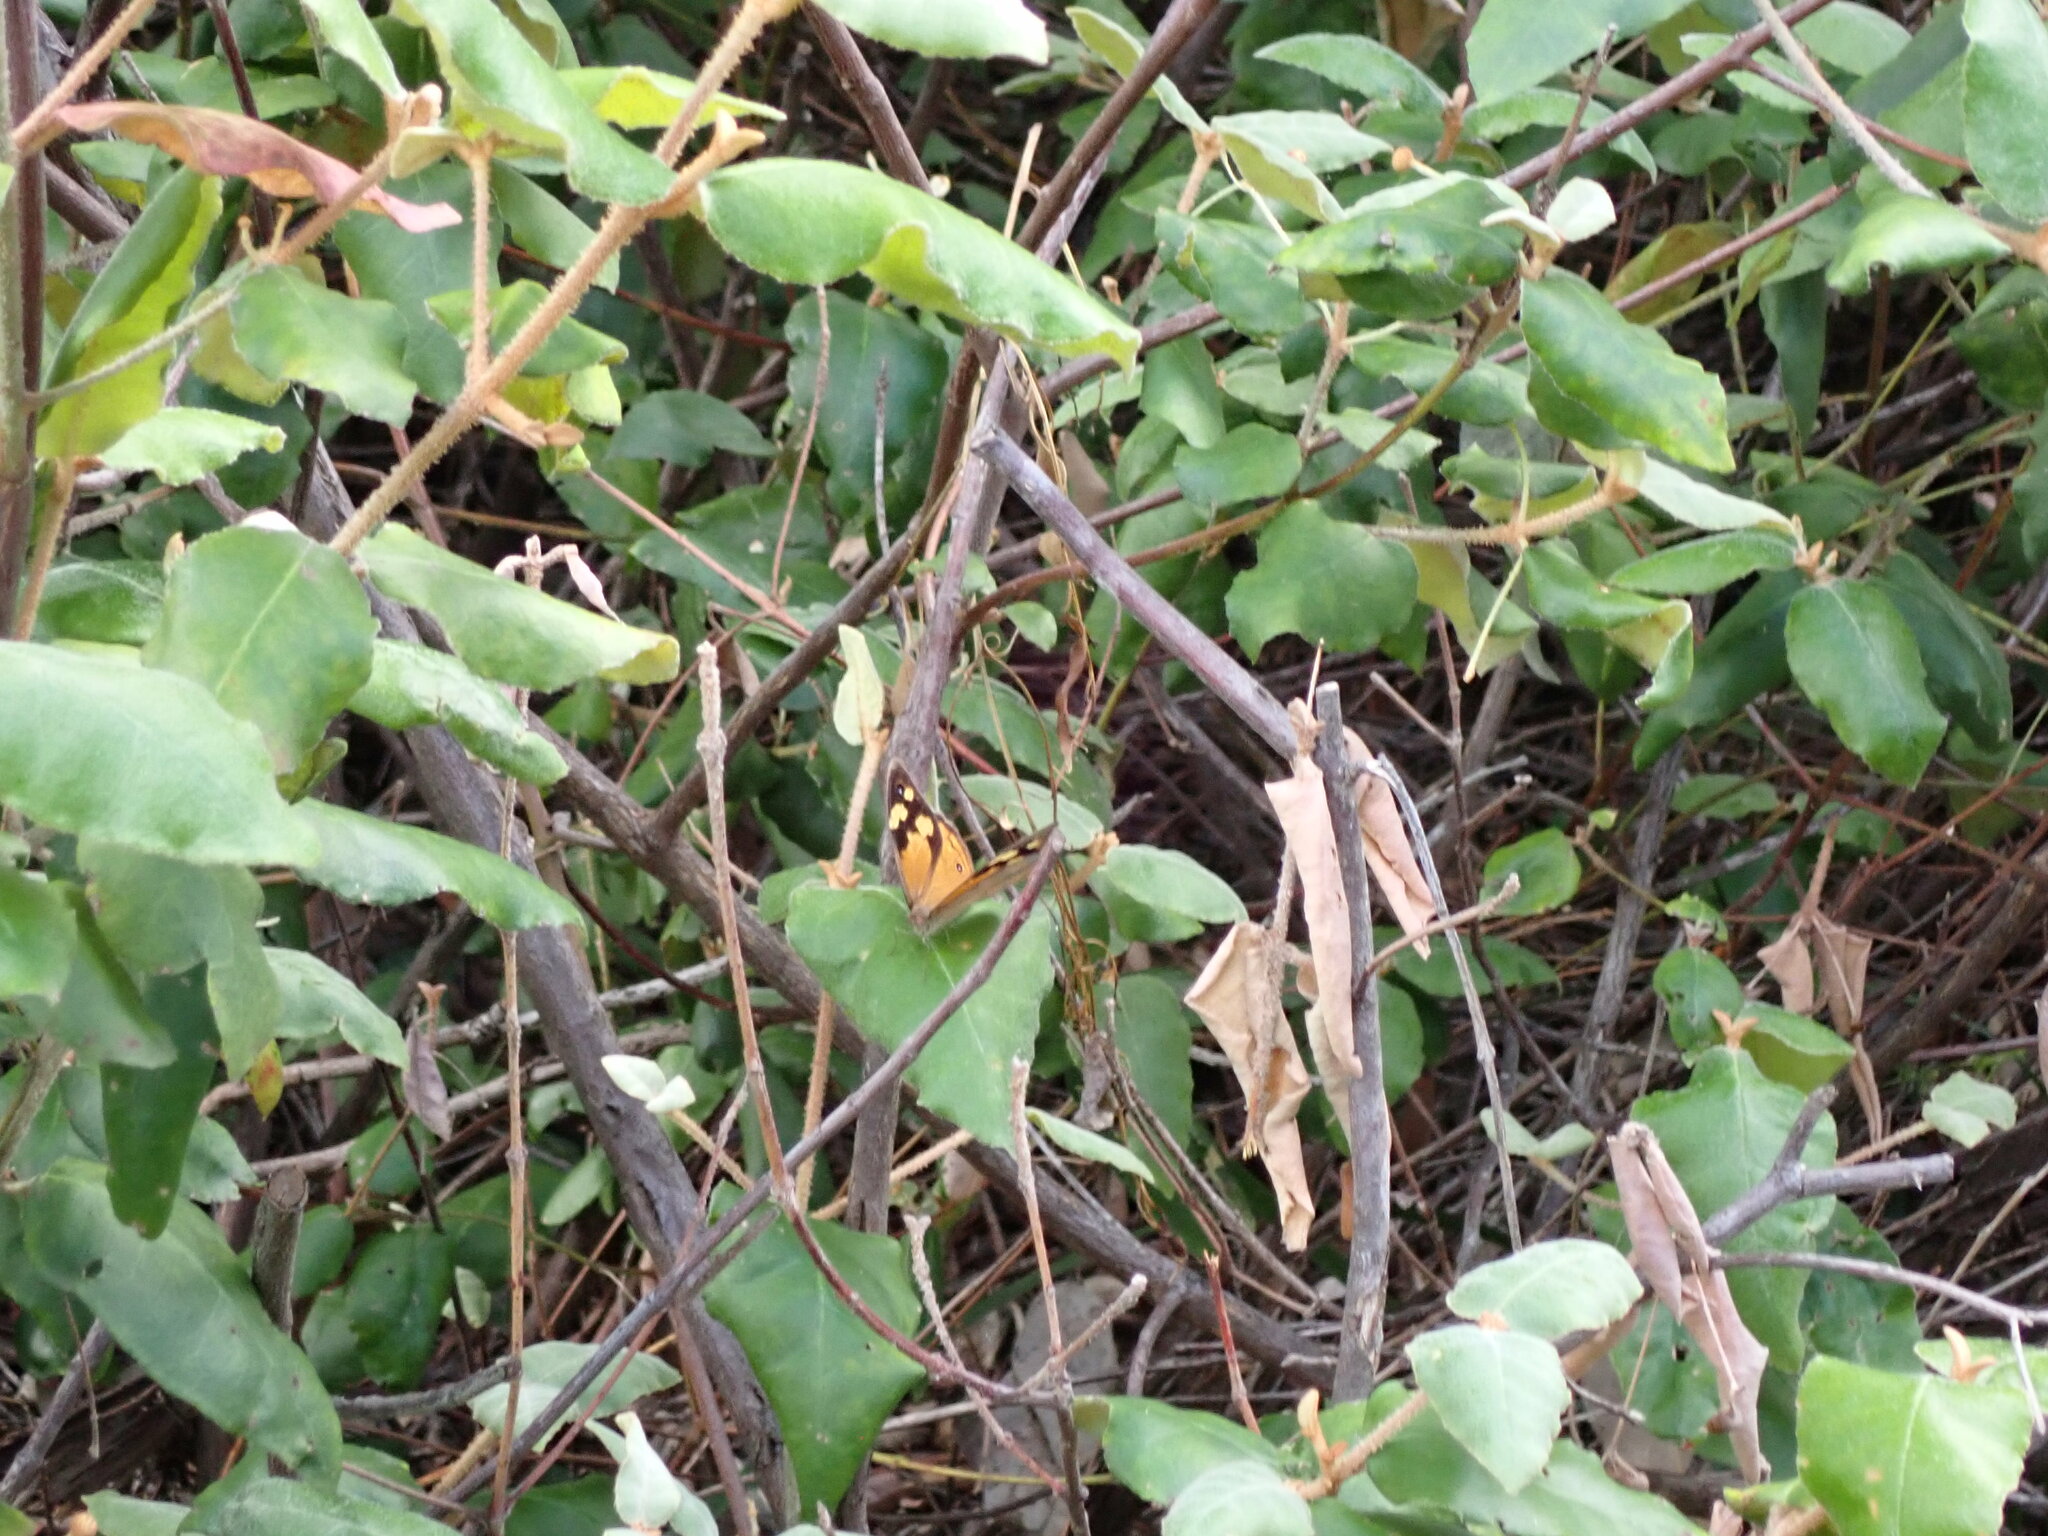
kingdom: Animalia
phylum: Arthropoda
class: Insecta
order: Lepidoptera
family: Nymphalidae
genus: Heteronympha
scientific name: Heteronympha merope
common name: Common brown
